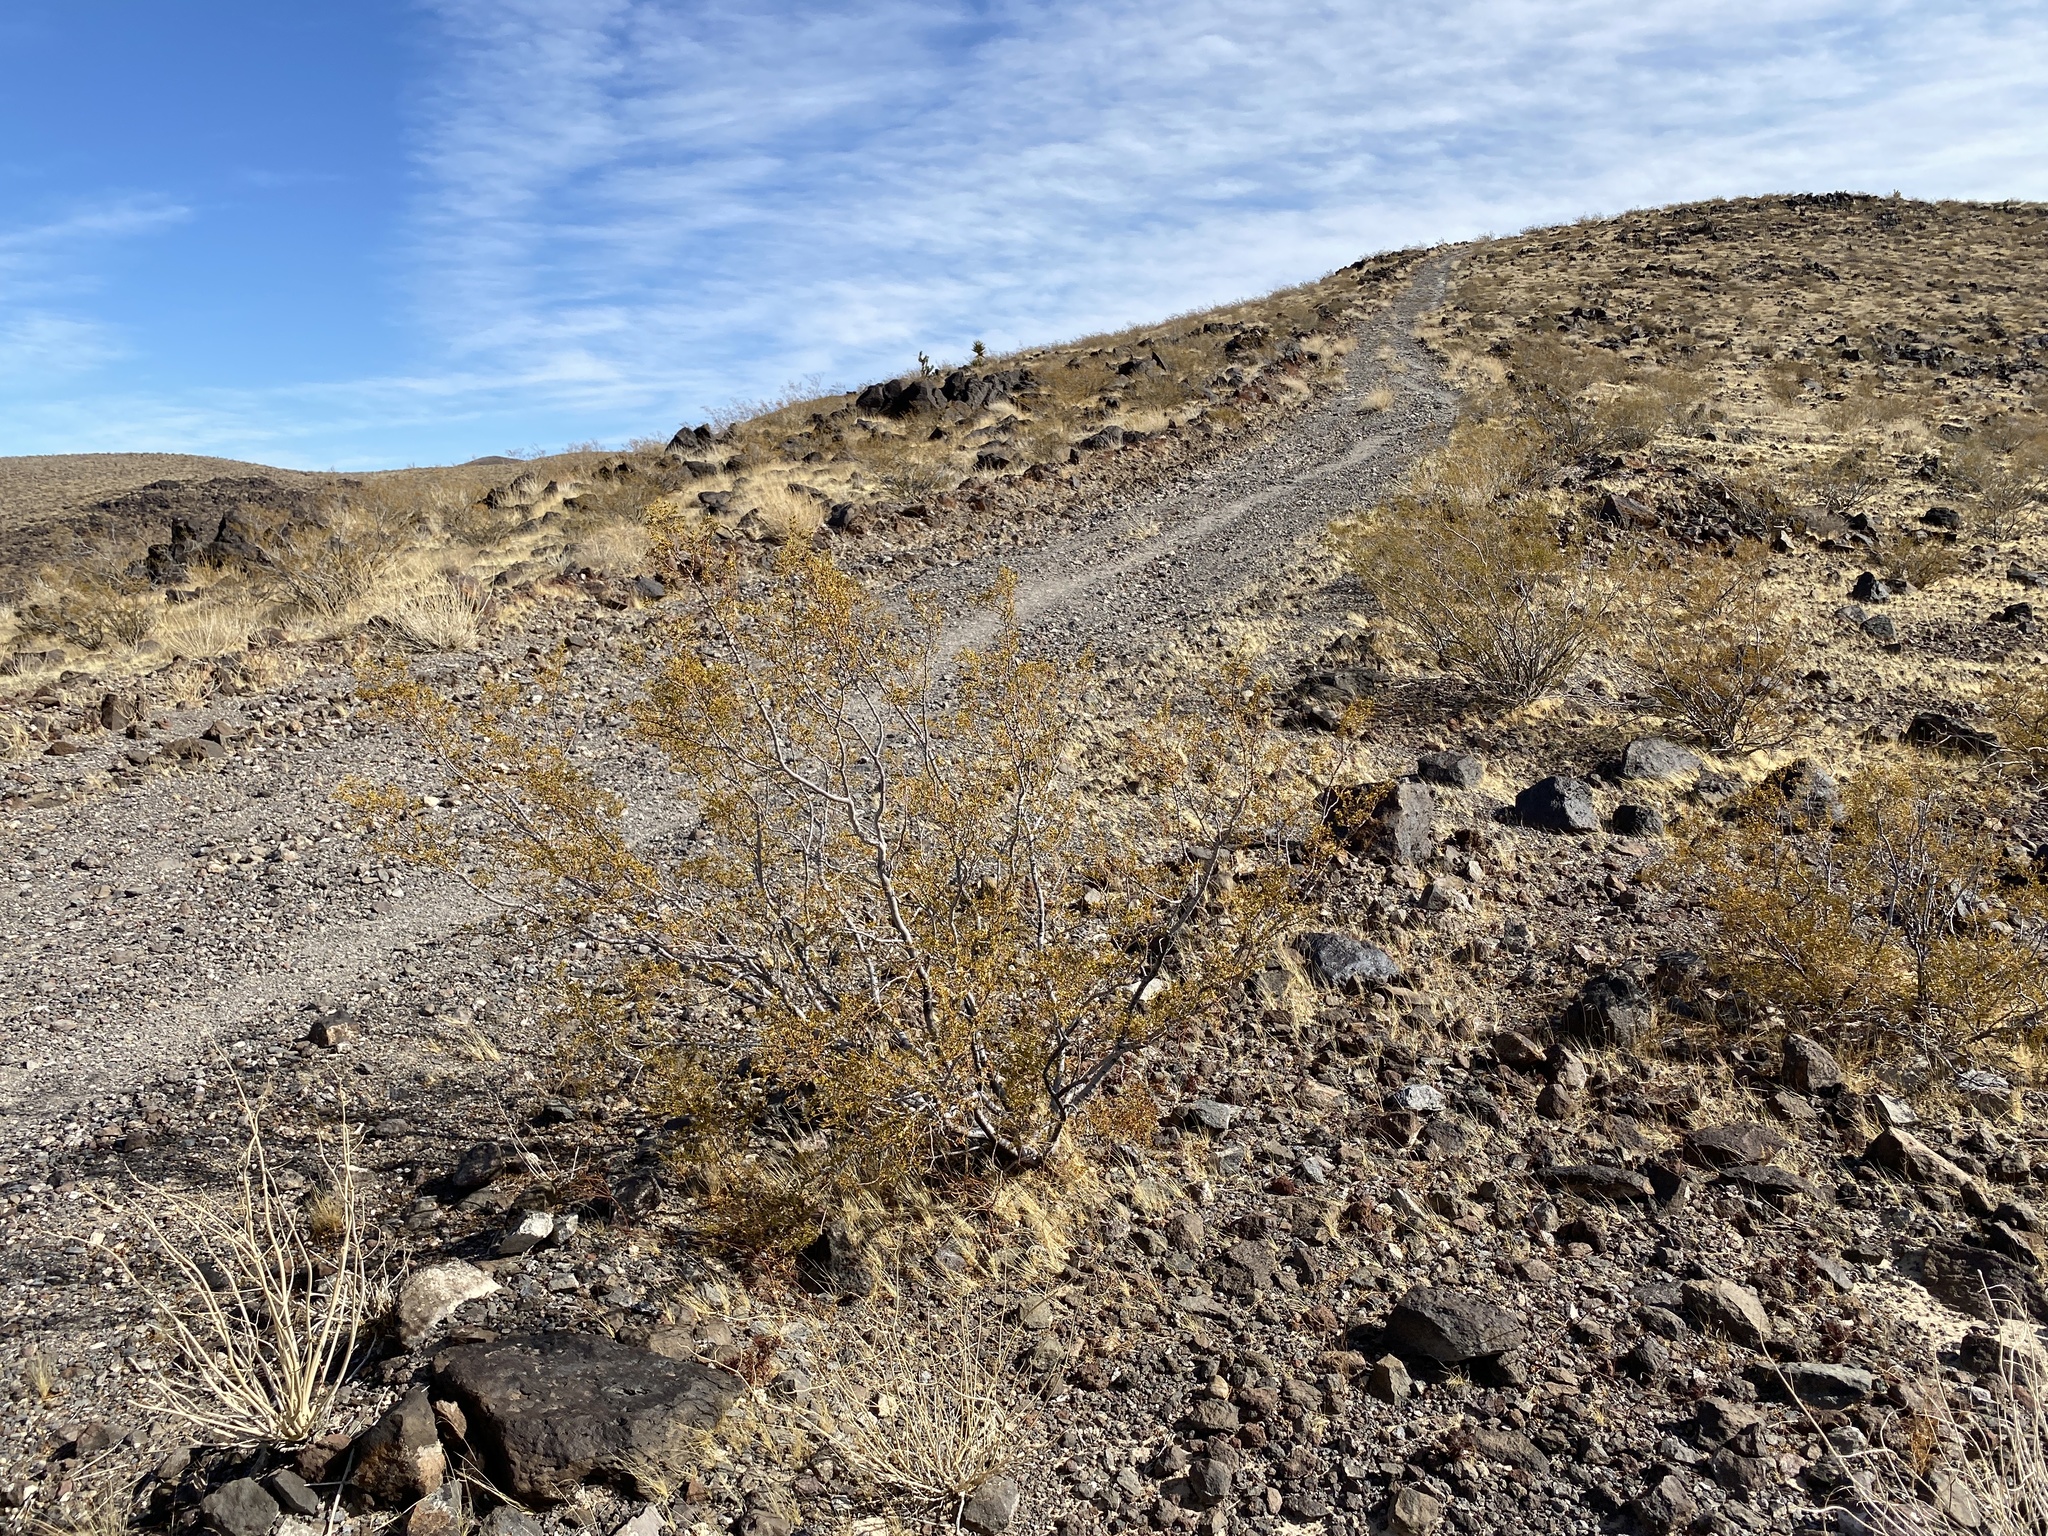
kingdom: Plantae
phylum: Tracheophyta
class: Magnoliopsida
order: Zygophyllales
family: Zygophyllaceae
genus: Larrea
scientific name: Larrea tridentata
